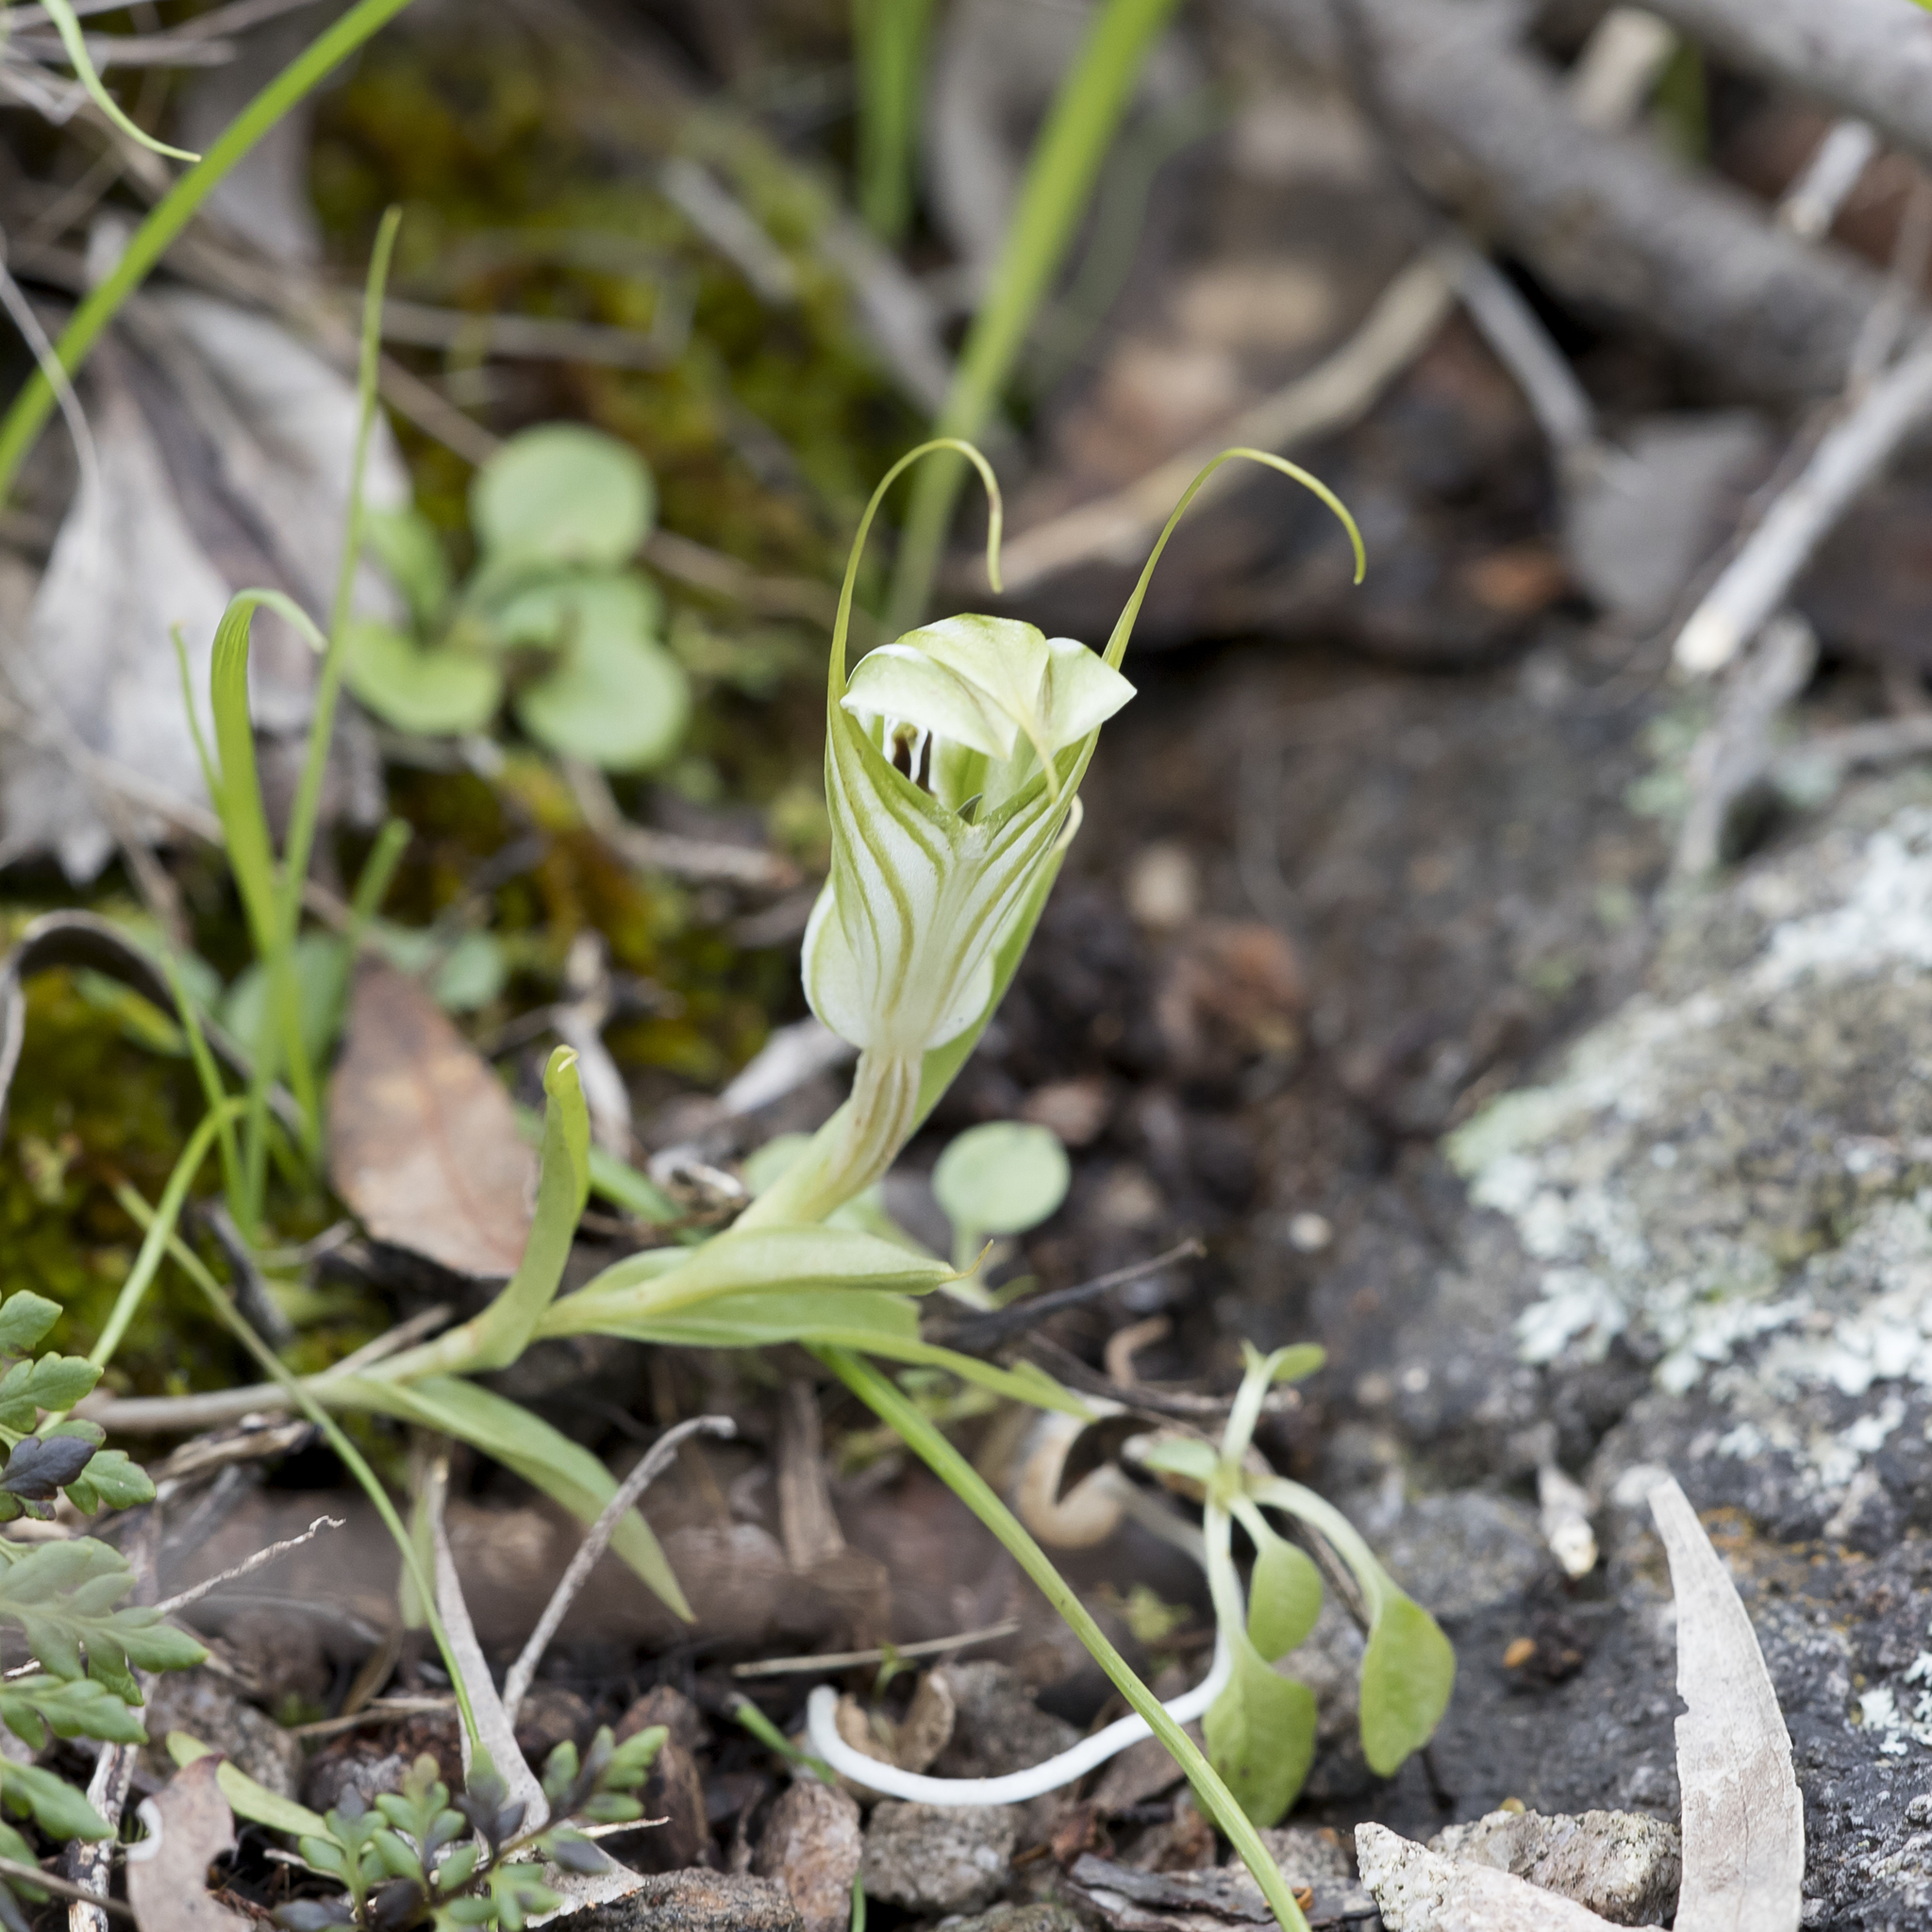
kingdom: Plantae
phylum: Tracheophyta
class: Liliopsida
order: Asparagales
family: Orchidaceae
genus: Pterostylis
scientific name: Pterostylis robusta
